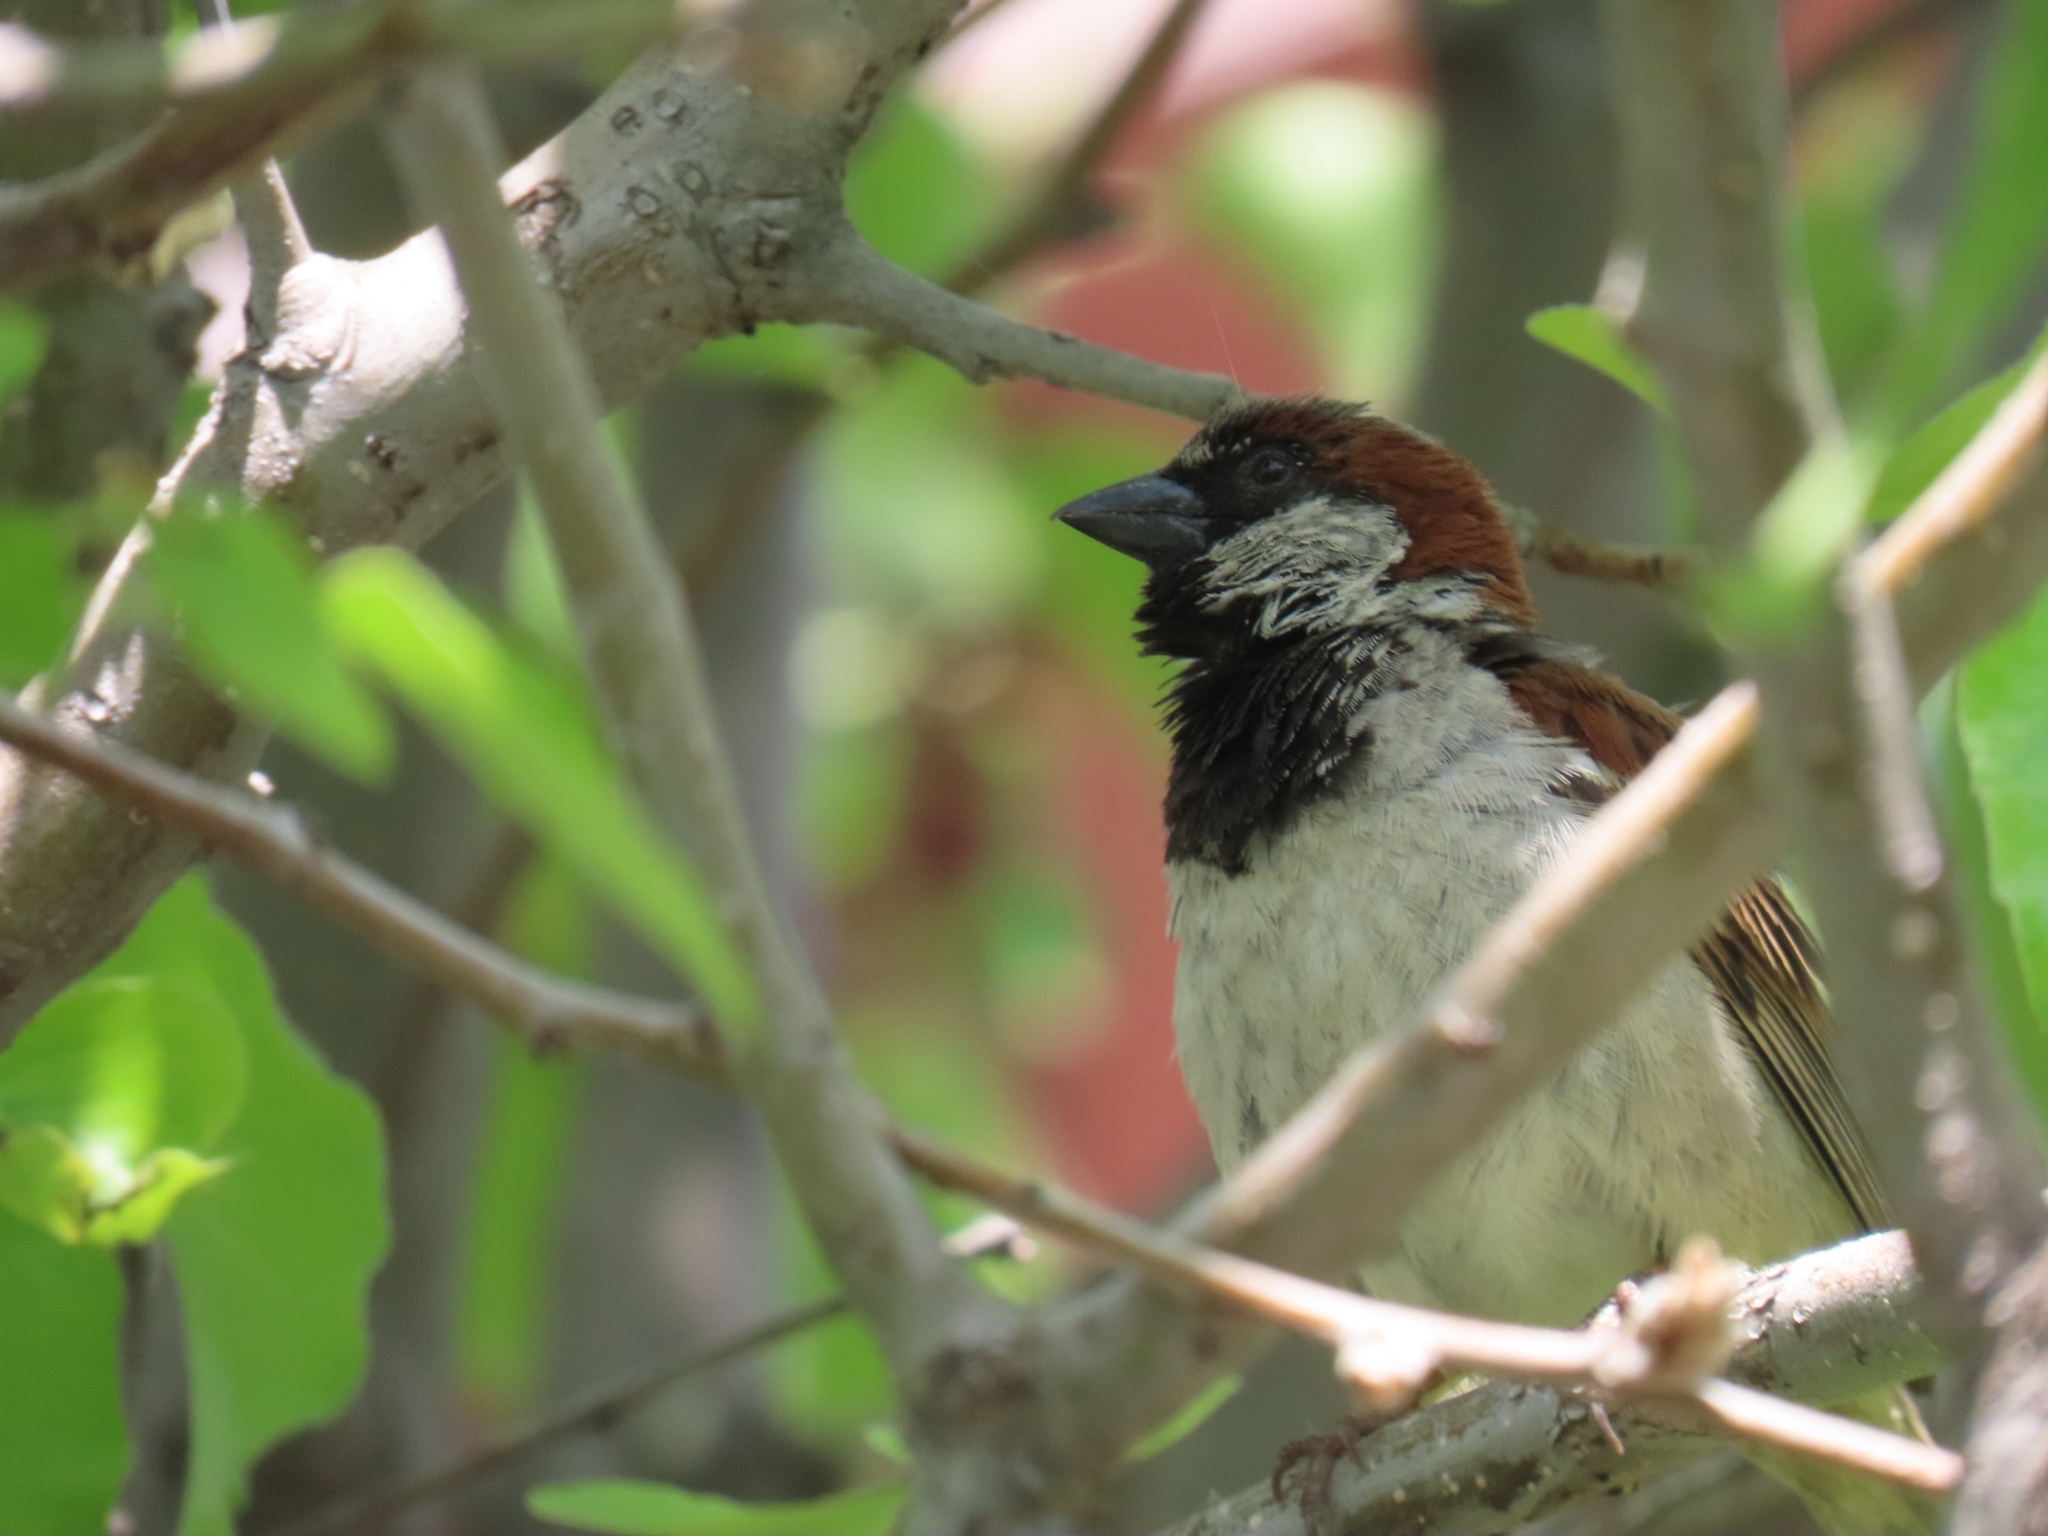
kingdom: Animalia
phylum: Chordata
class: Aves
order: Passeriformes
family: Passeridae
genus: Passer
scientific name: Passer domesticus
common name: House sparrow
